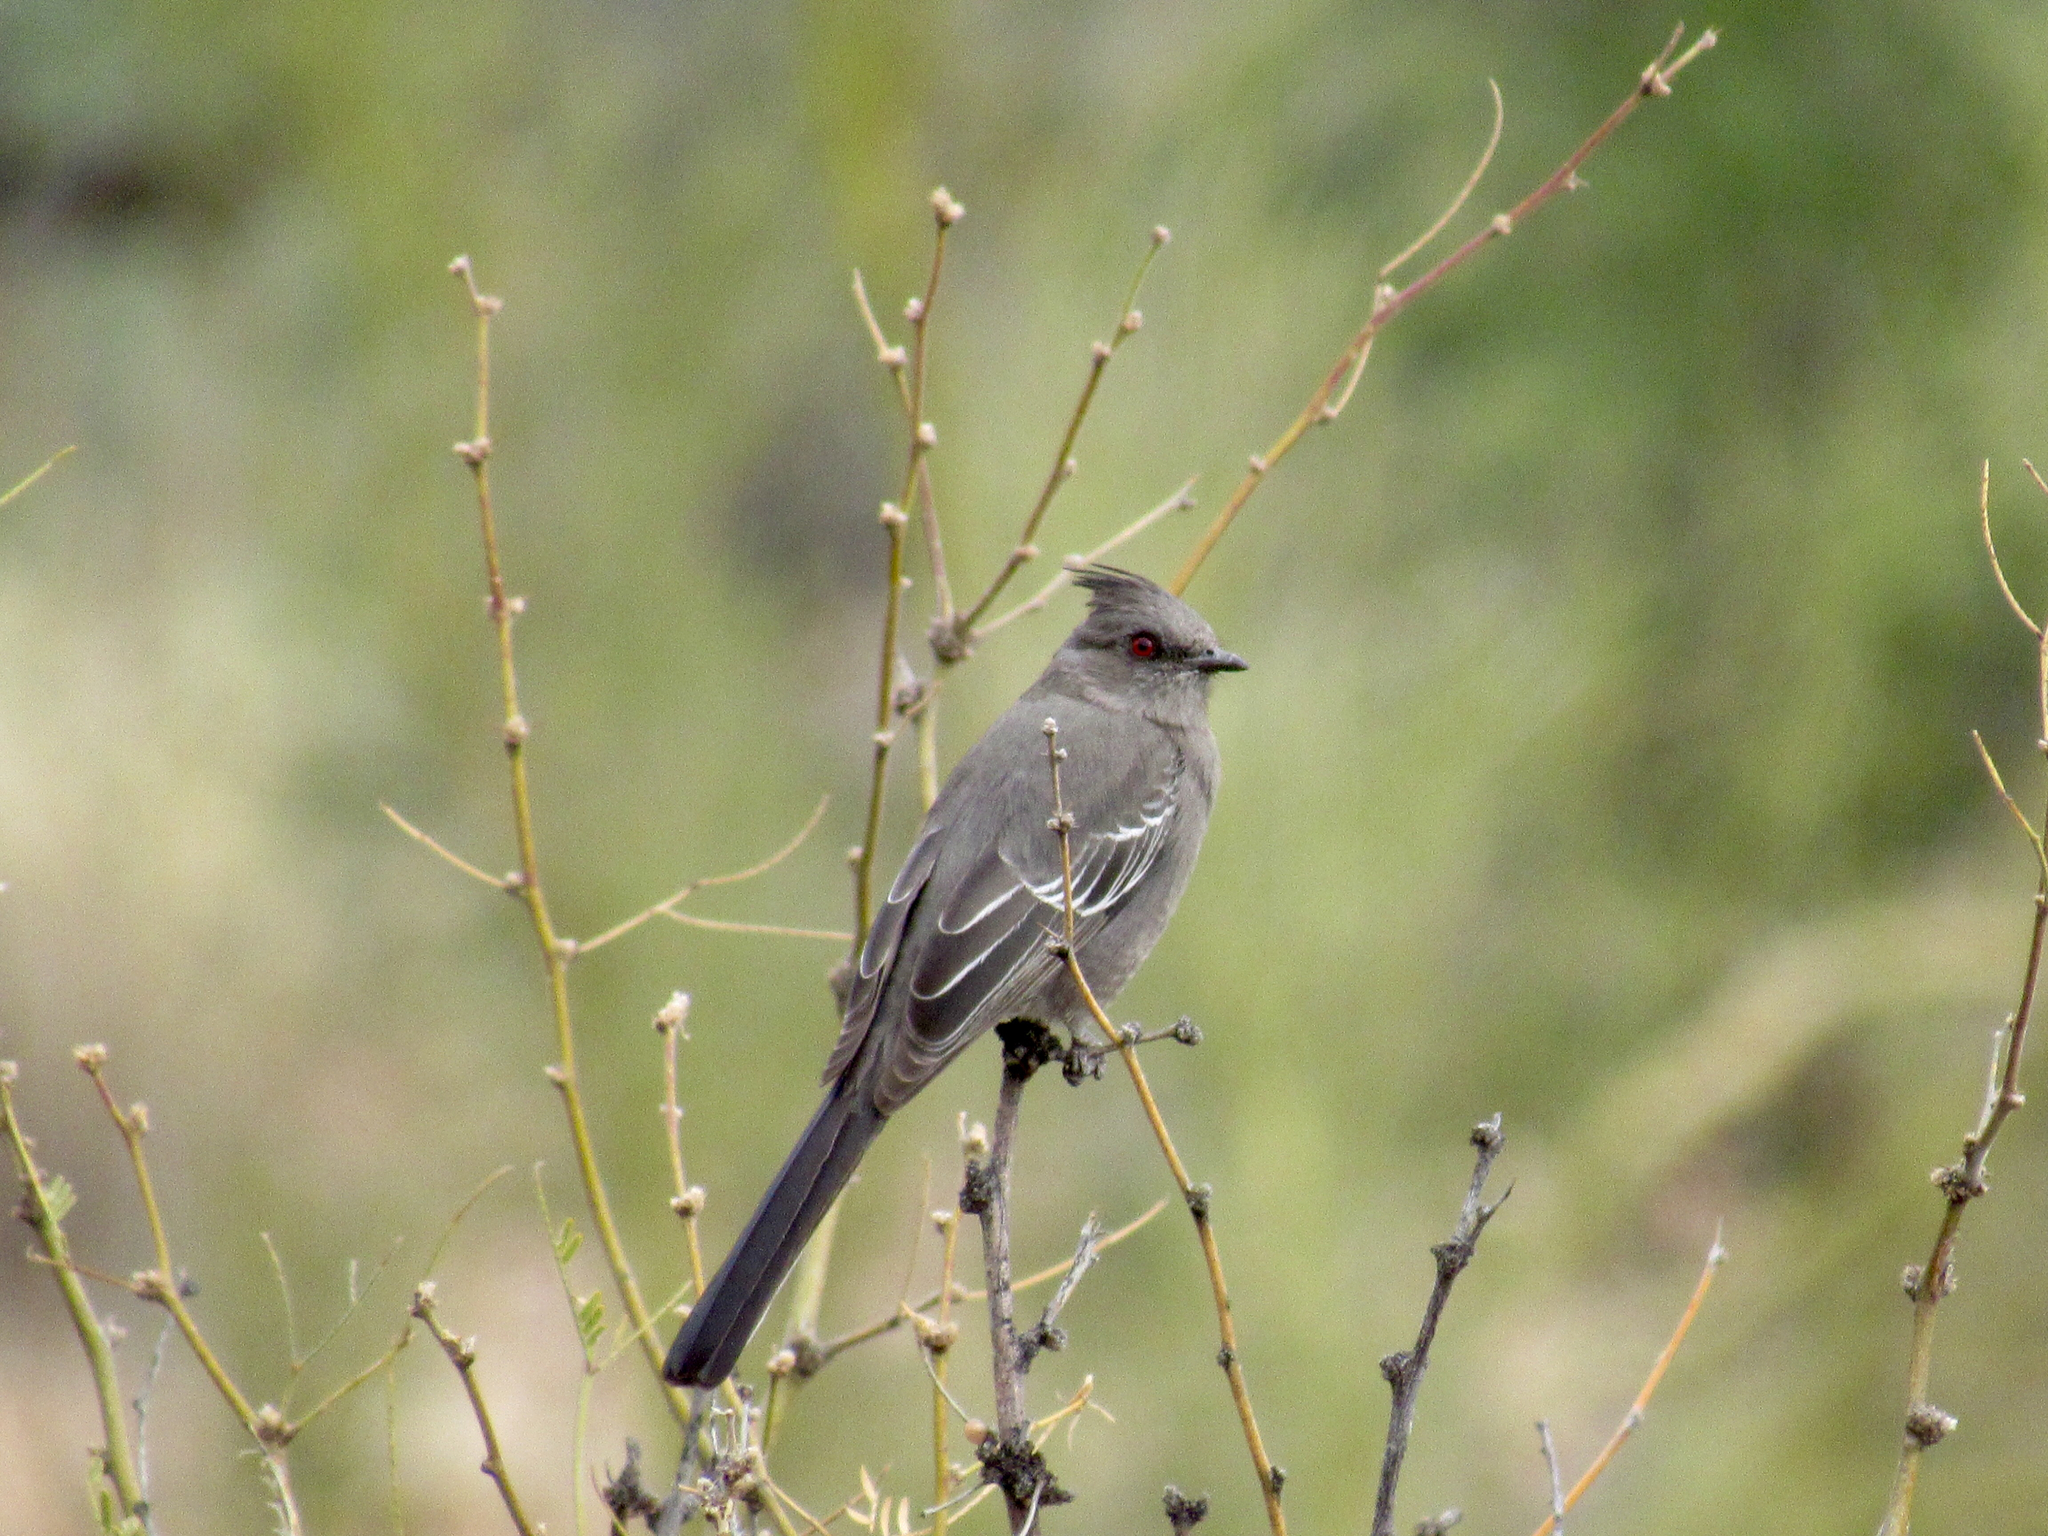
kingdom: Animalia
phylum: Chordata
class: Aves
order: Passeriformes
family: Ptilogonatidae
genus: Phainopepla
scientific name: Phainopepla nitens
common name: Phainopepla
